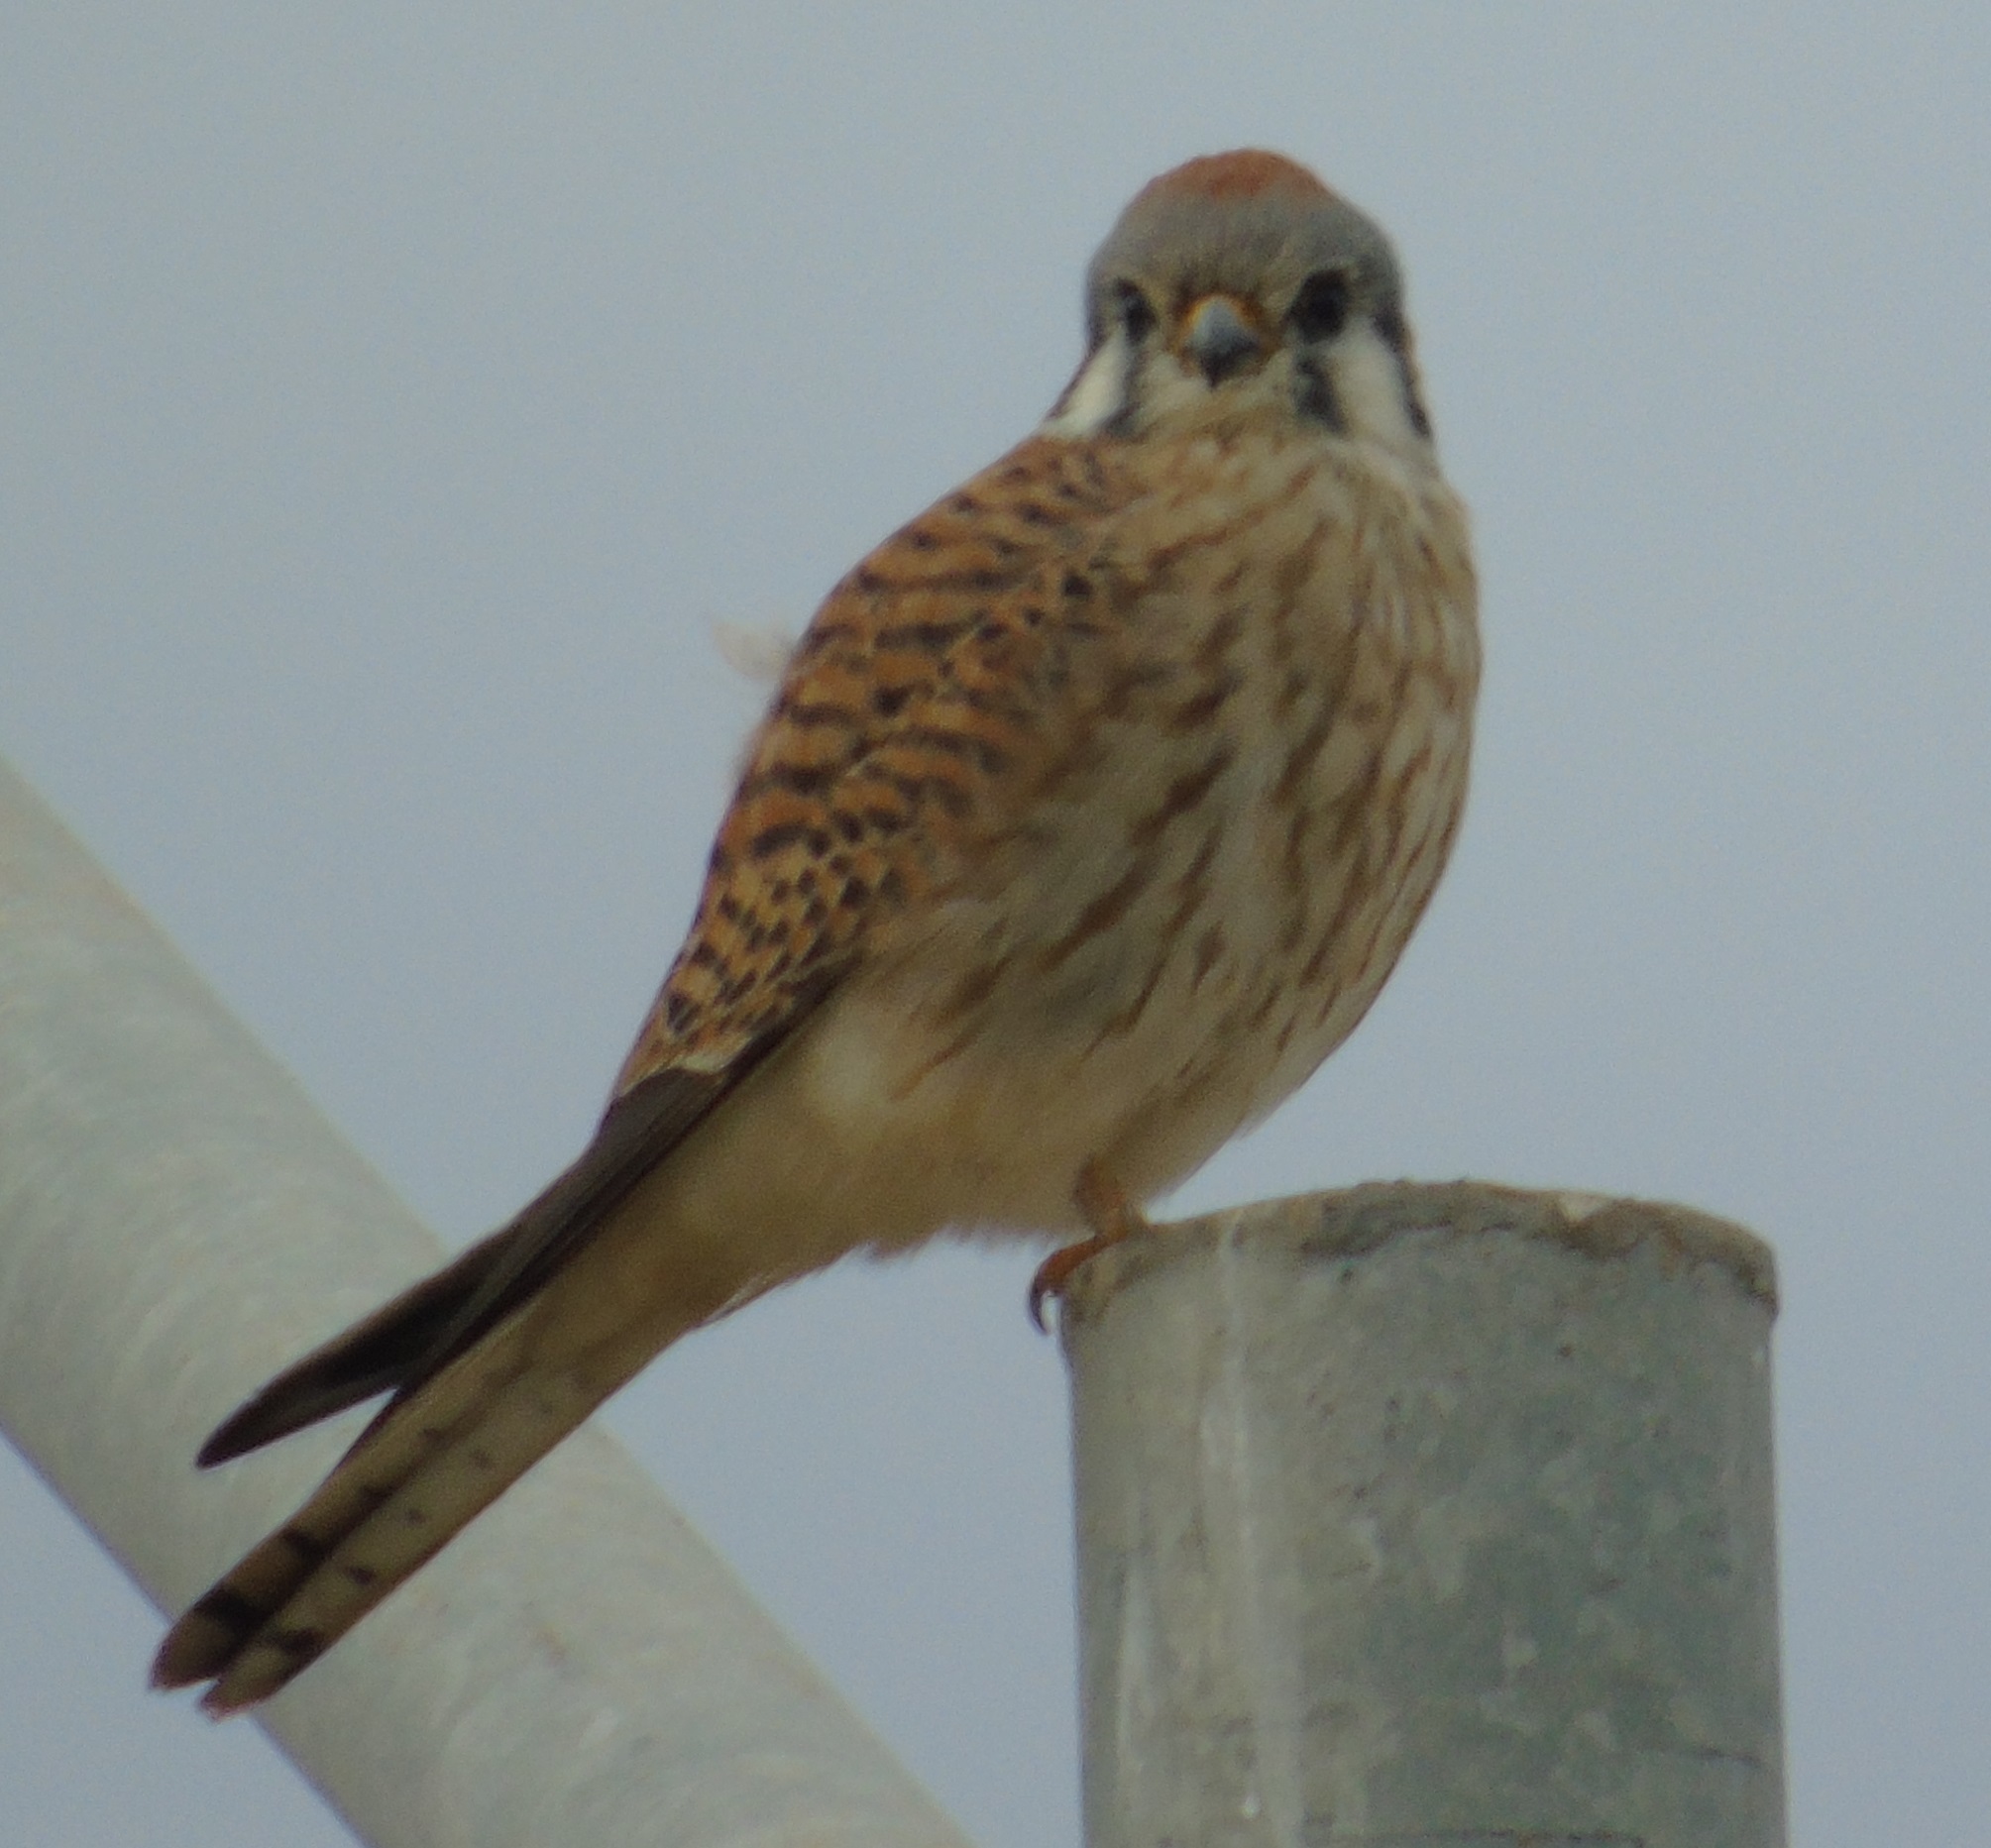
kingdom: Animalia
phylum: Chordata
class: Aves
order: Falconiformes
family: Falconidae
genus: Falco
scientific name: Falco sparverius
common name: American kestrel
